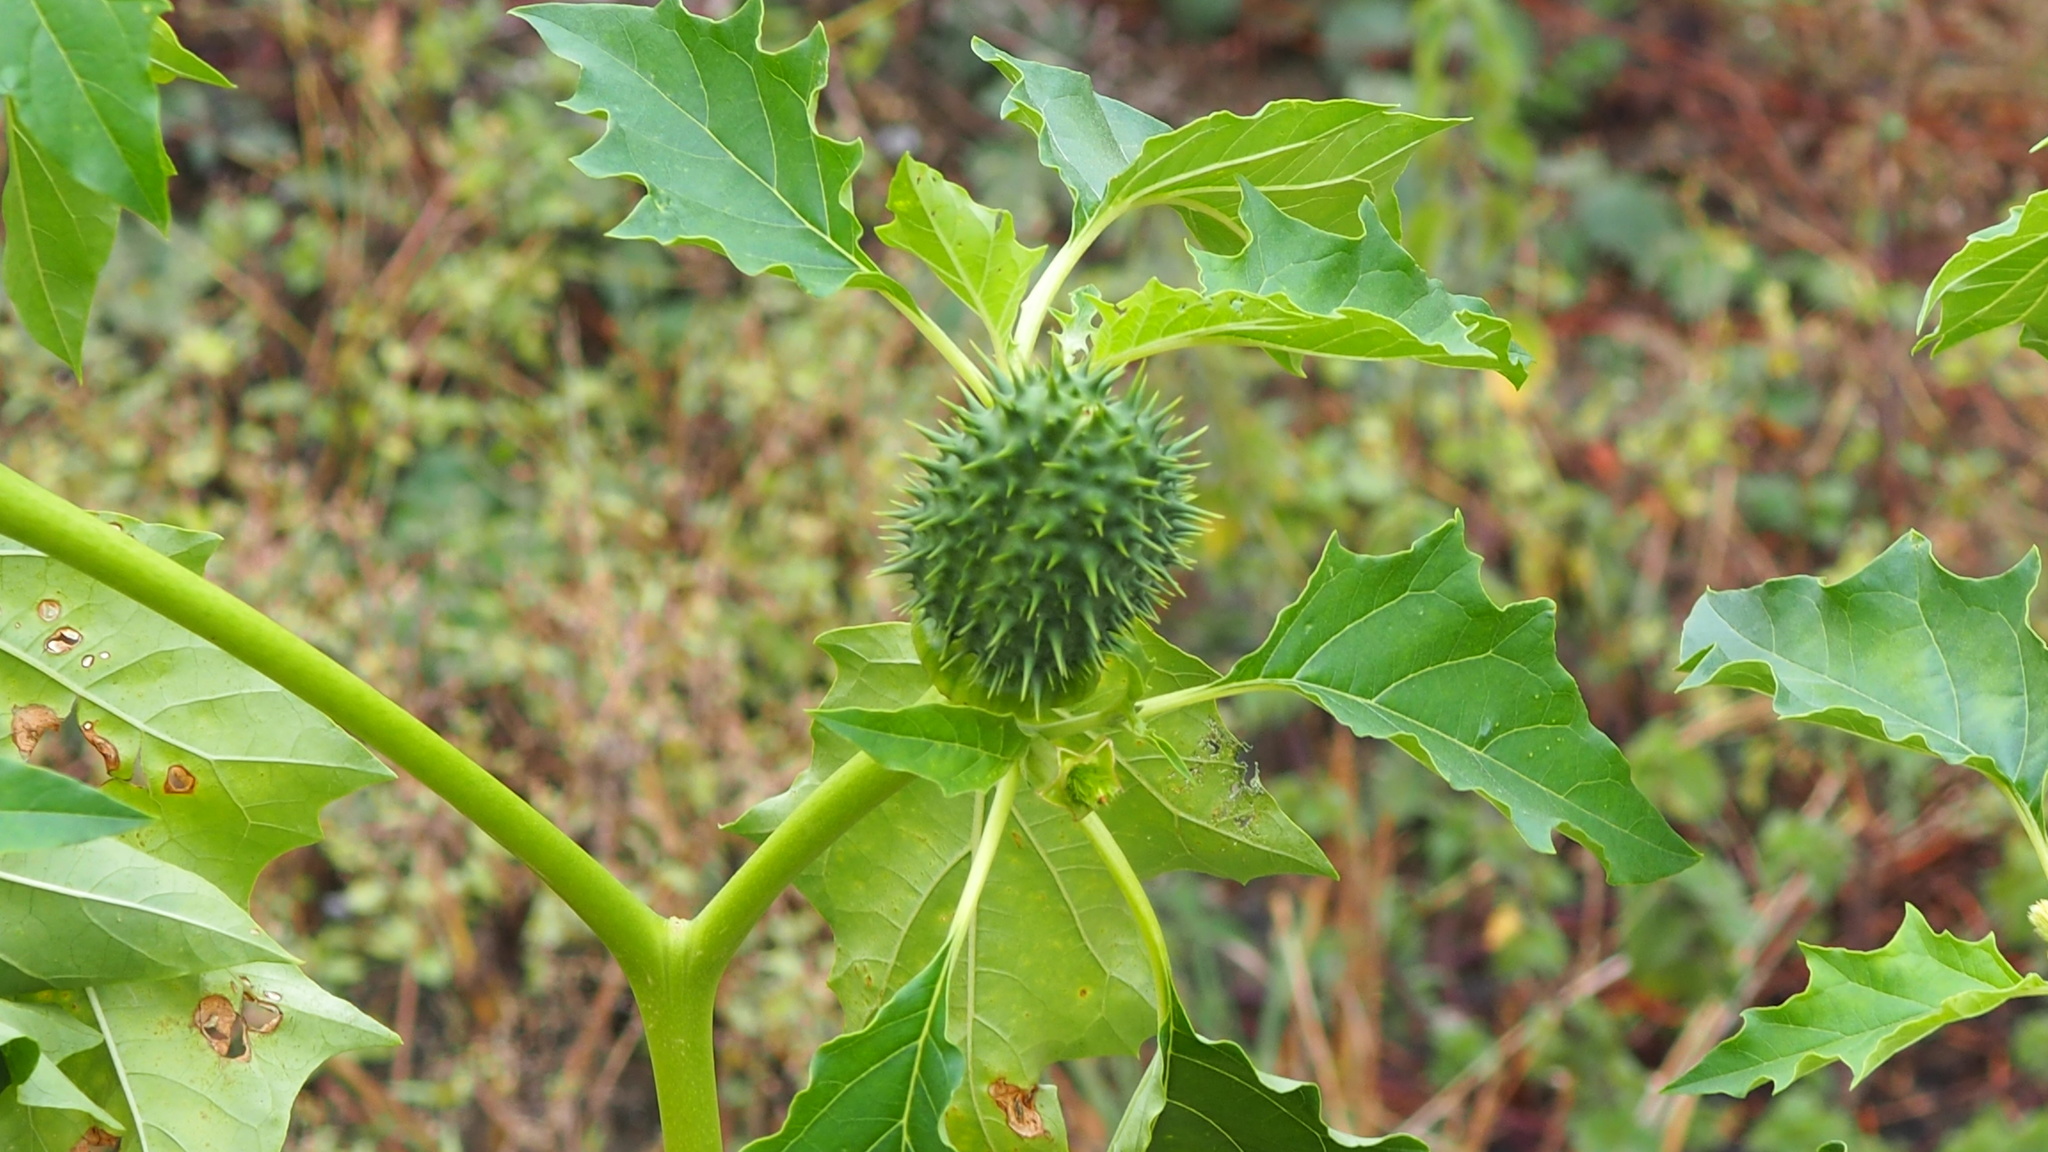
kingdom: Plantae
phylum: Tracheophyta
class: Magnoliopsida
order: Solanales
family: Solanaceae
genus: Datura
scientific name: Datura stramonium
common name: Thorn-apple
